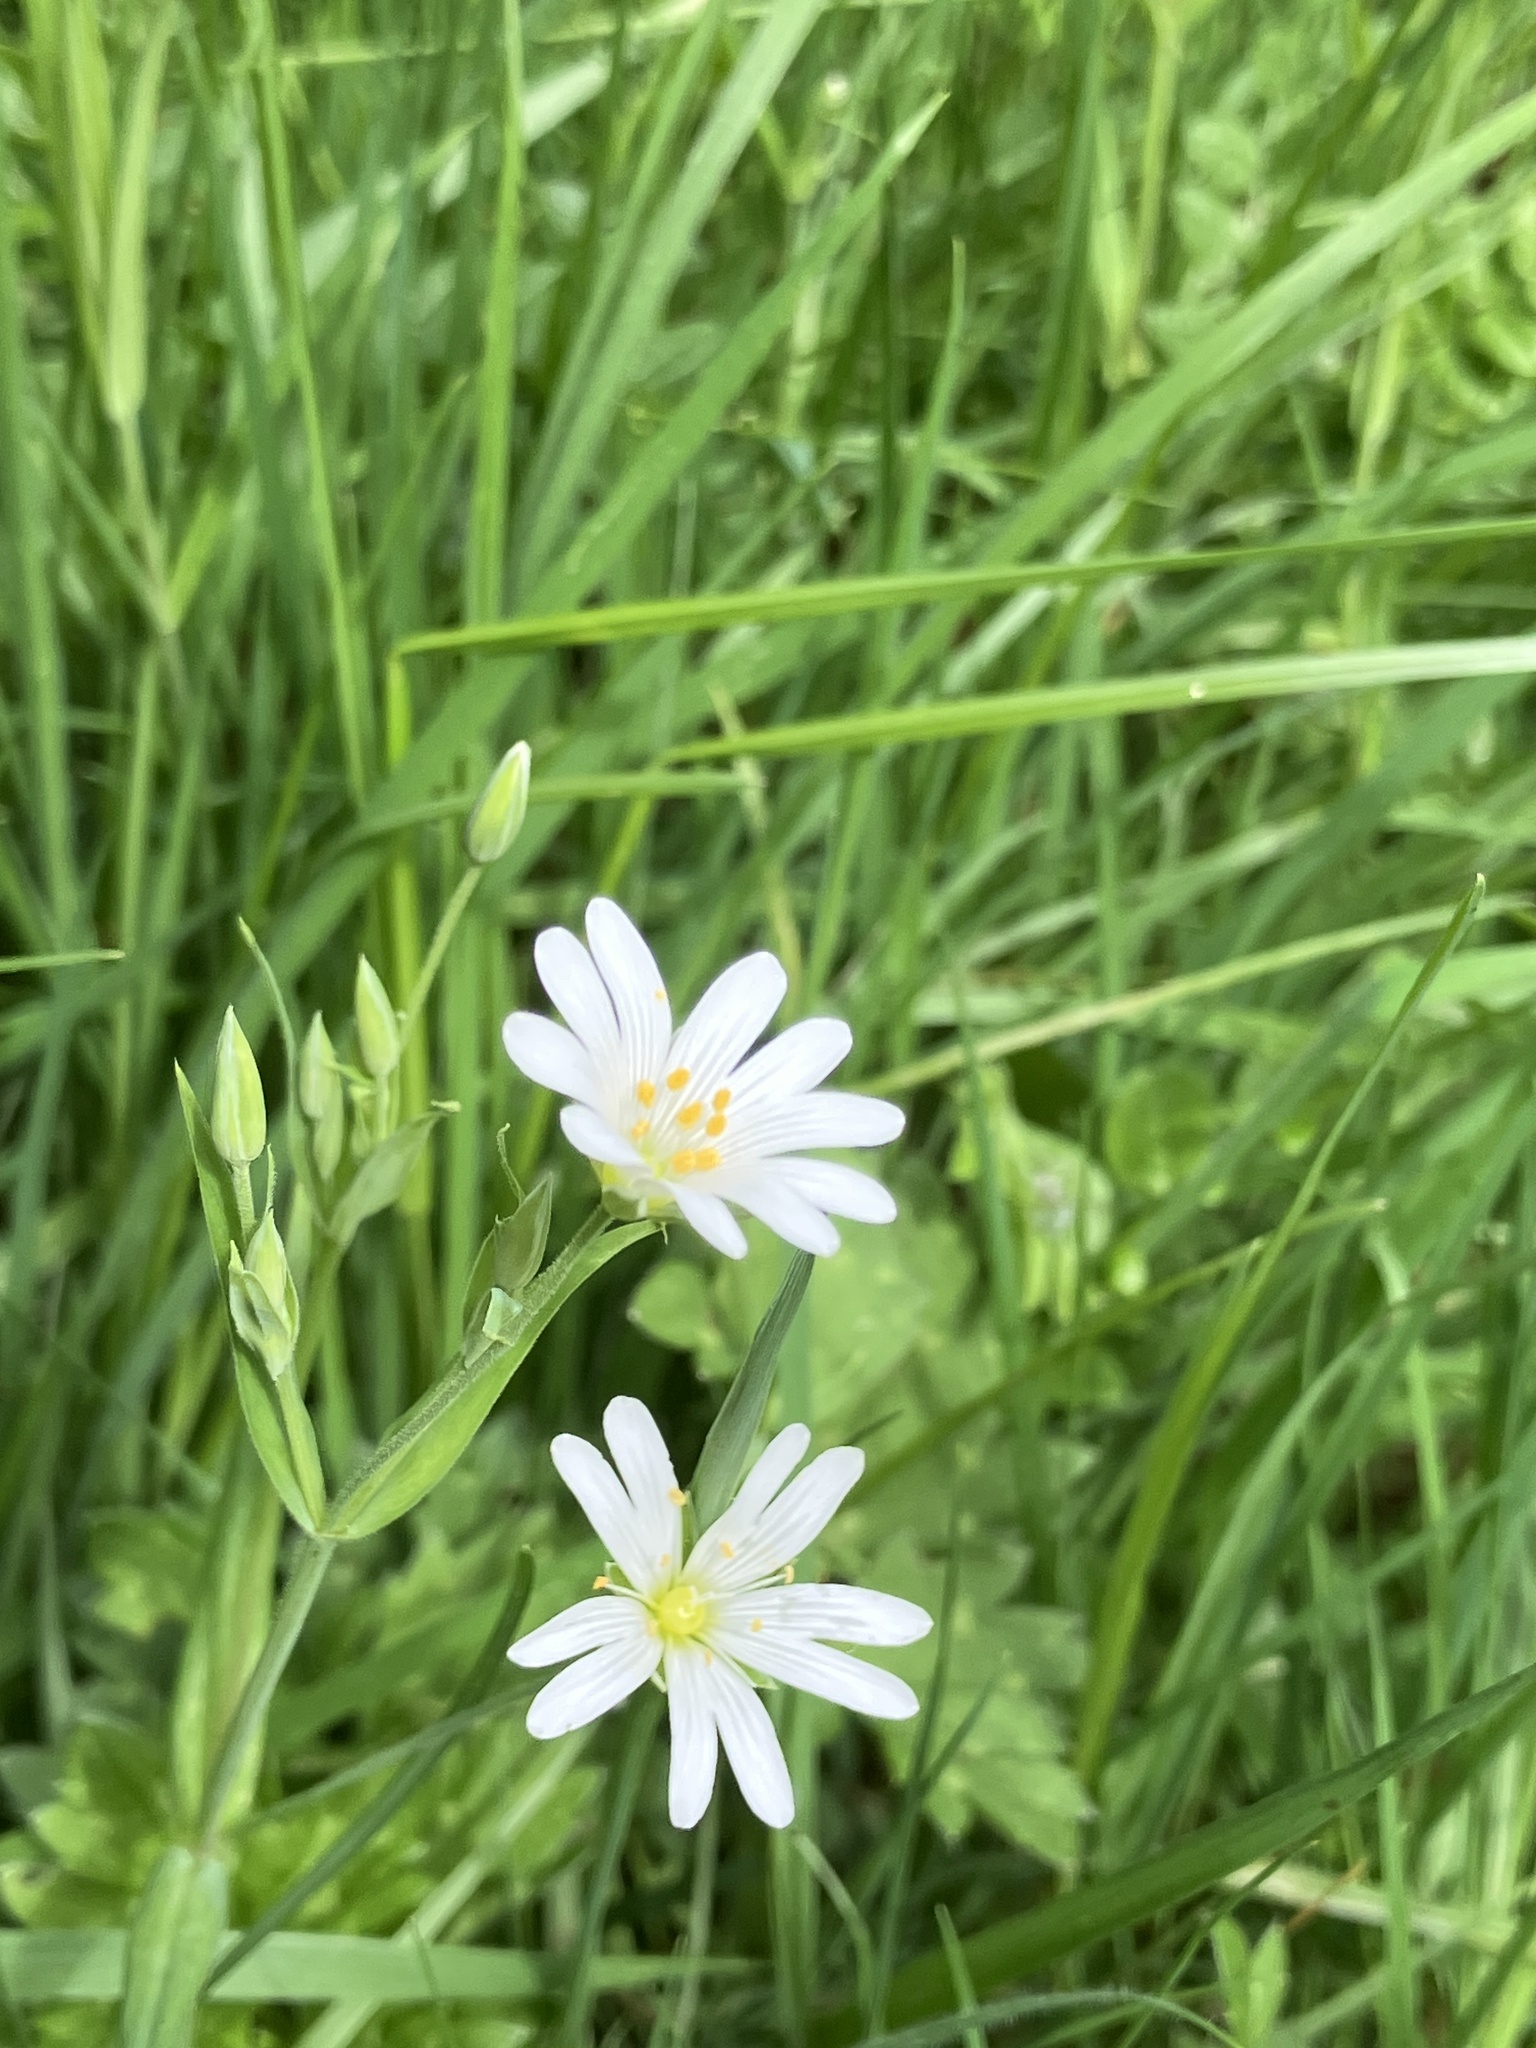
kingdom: Plantae
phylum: Tracheophyta
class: Magnoliopsida
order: Caryophyllales
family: Caryophyllaceae
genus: Rabelera
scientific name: Rabelera holostea
